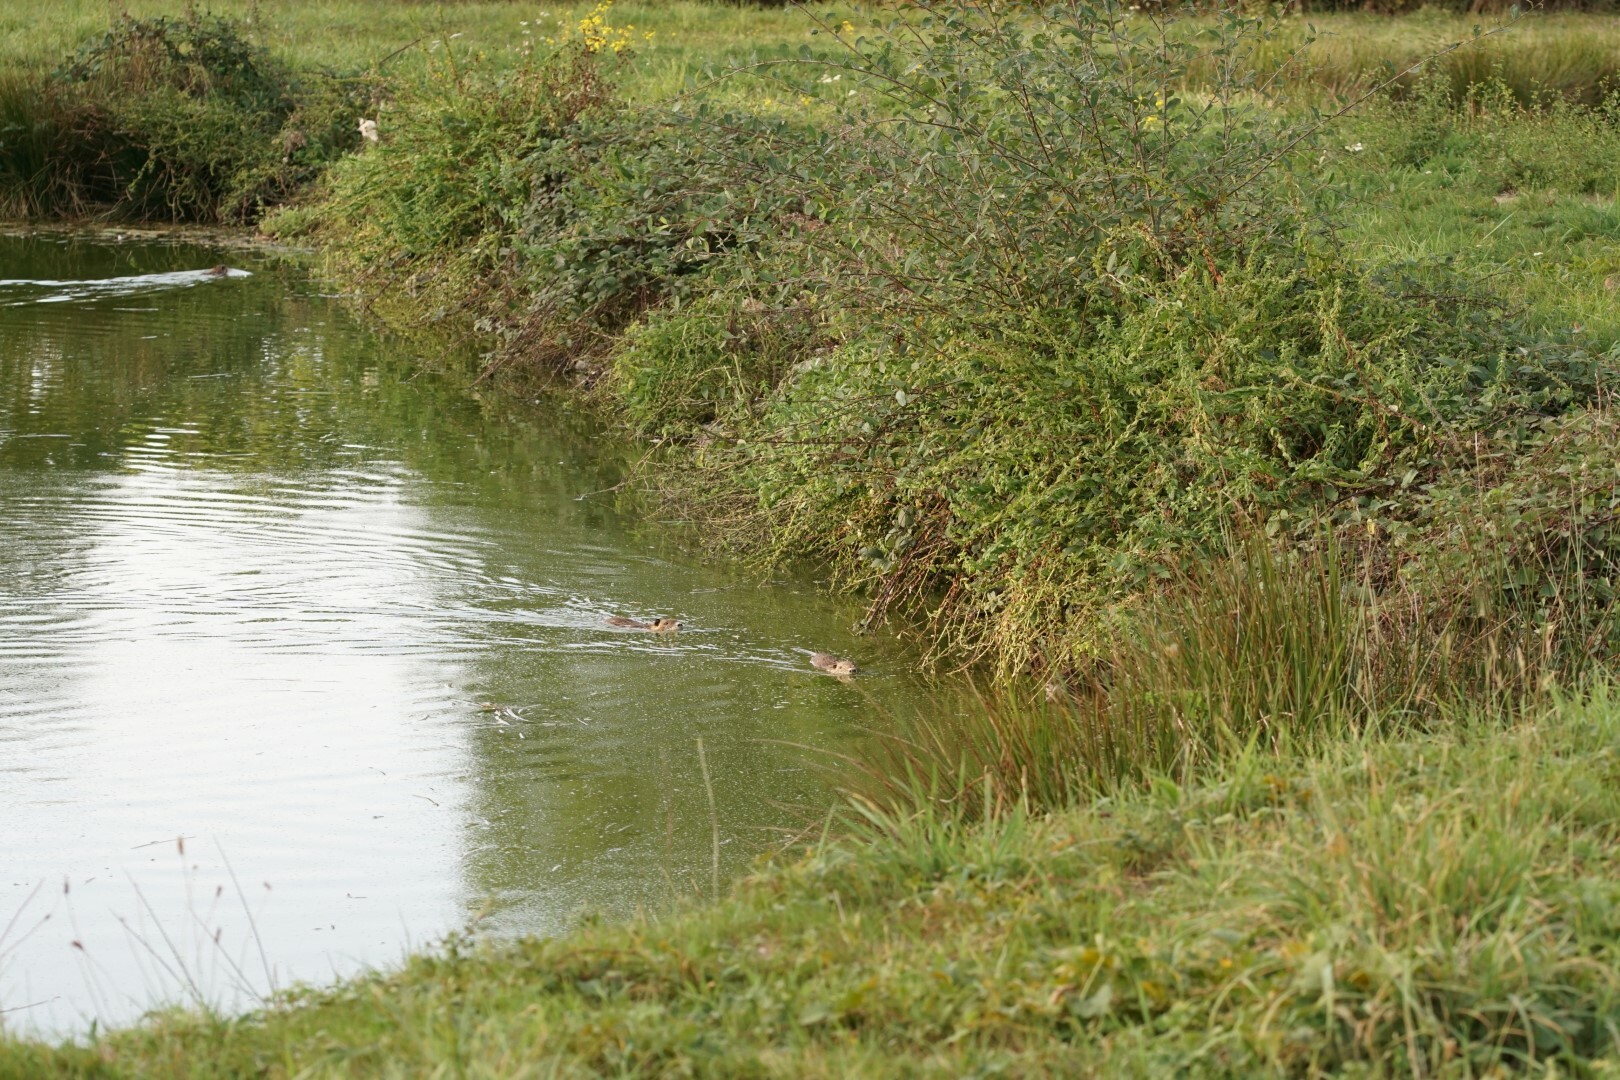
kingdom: Animalia
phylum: Chordata
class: Mammalia
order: Rodentia
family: Myocastoridae
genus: Myocastor
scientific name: Myocastor coypus
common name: Coypu
